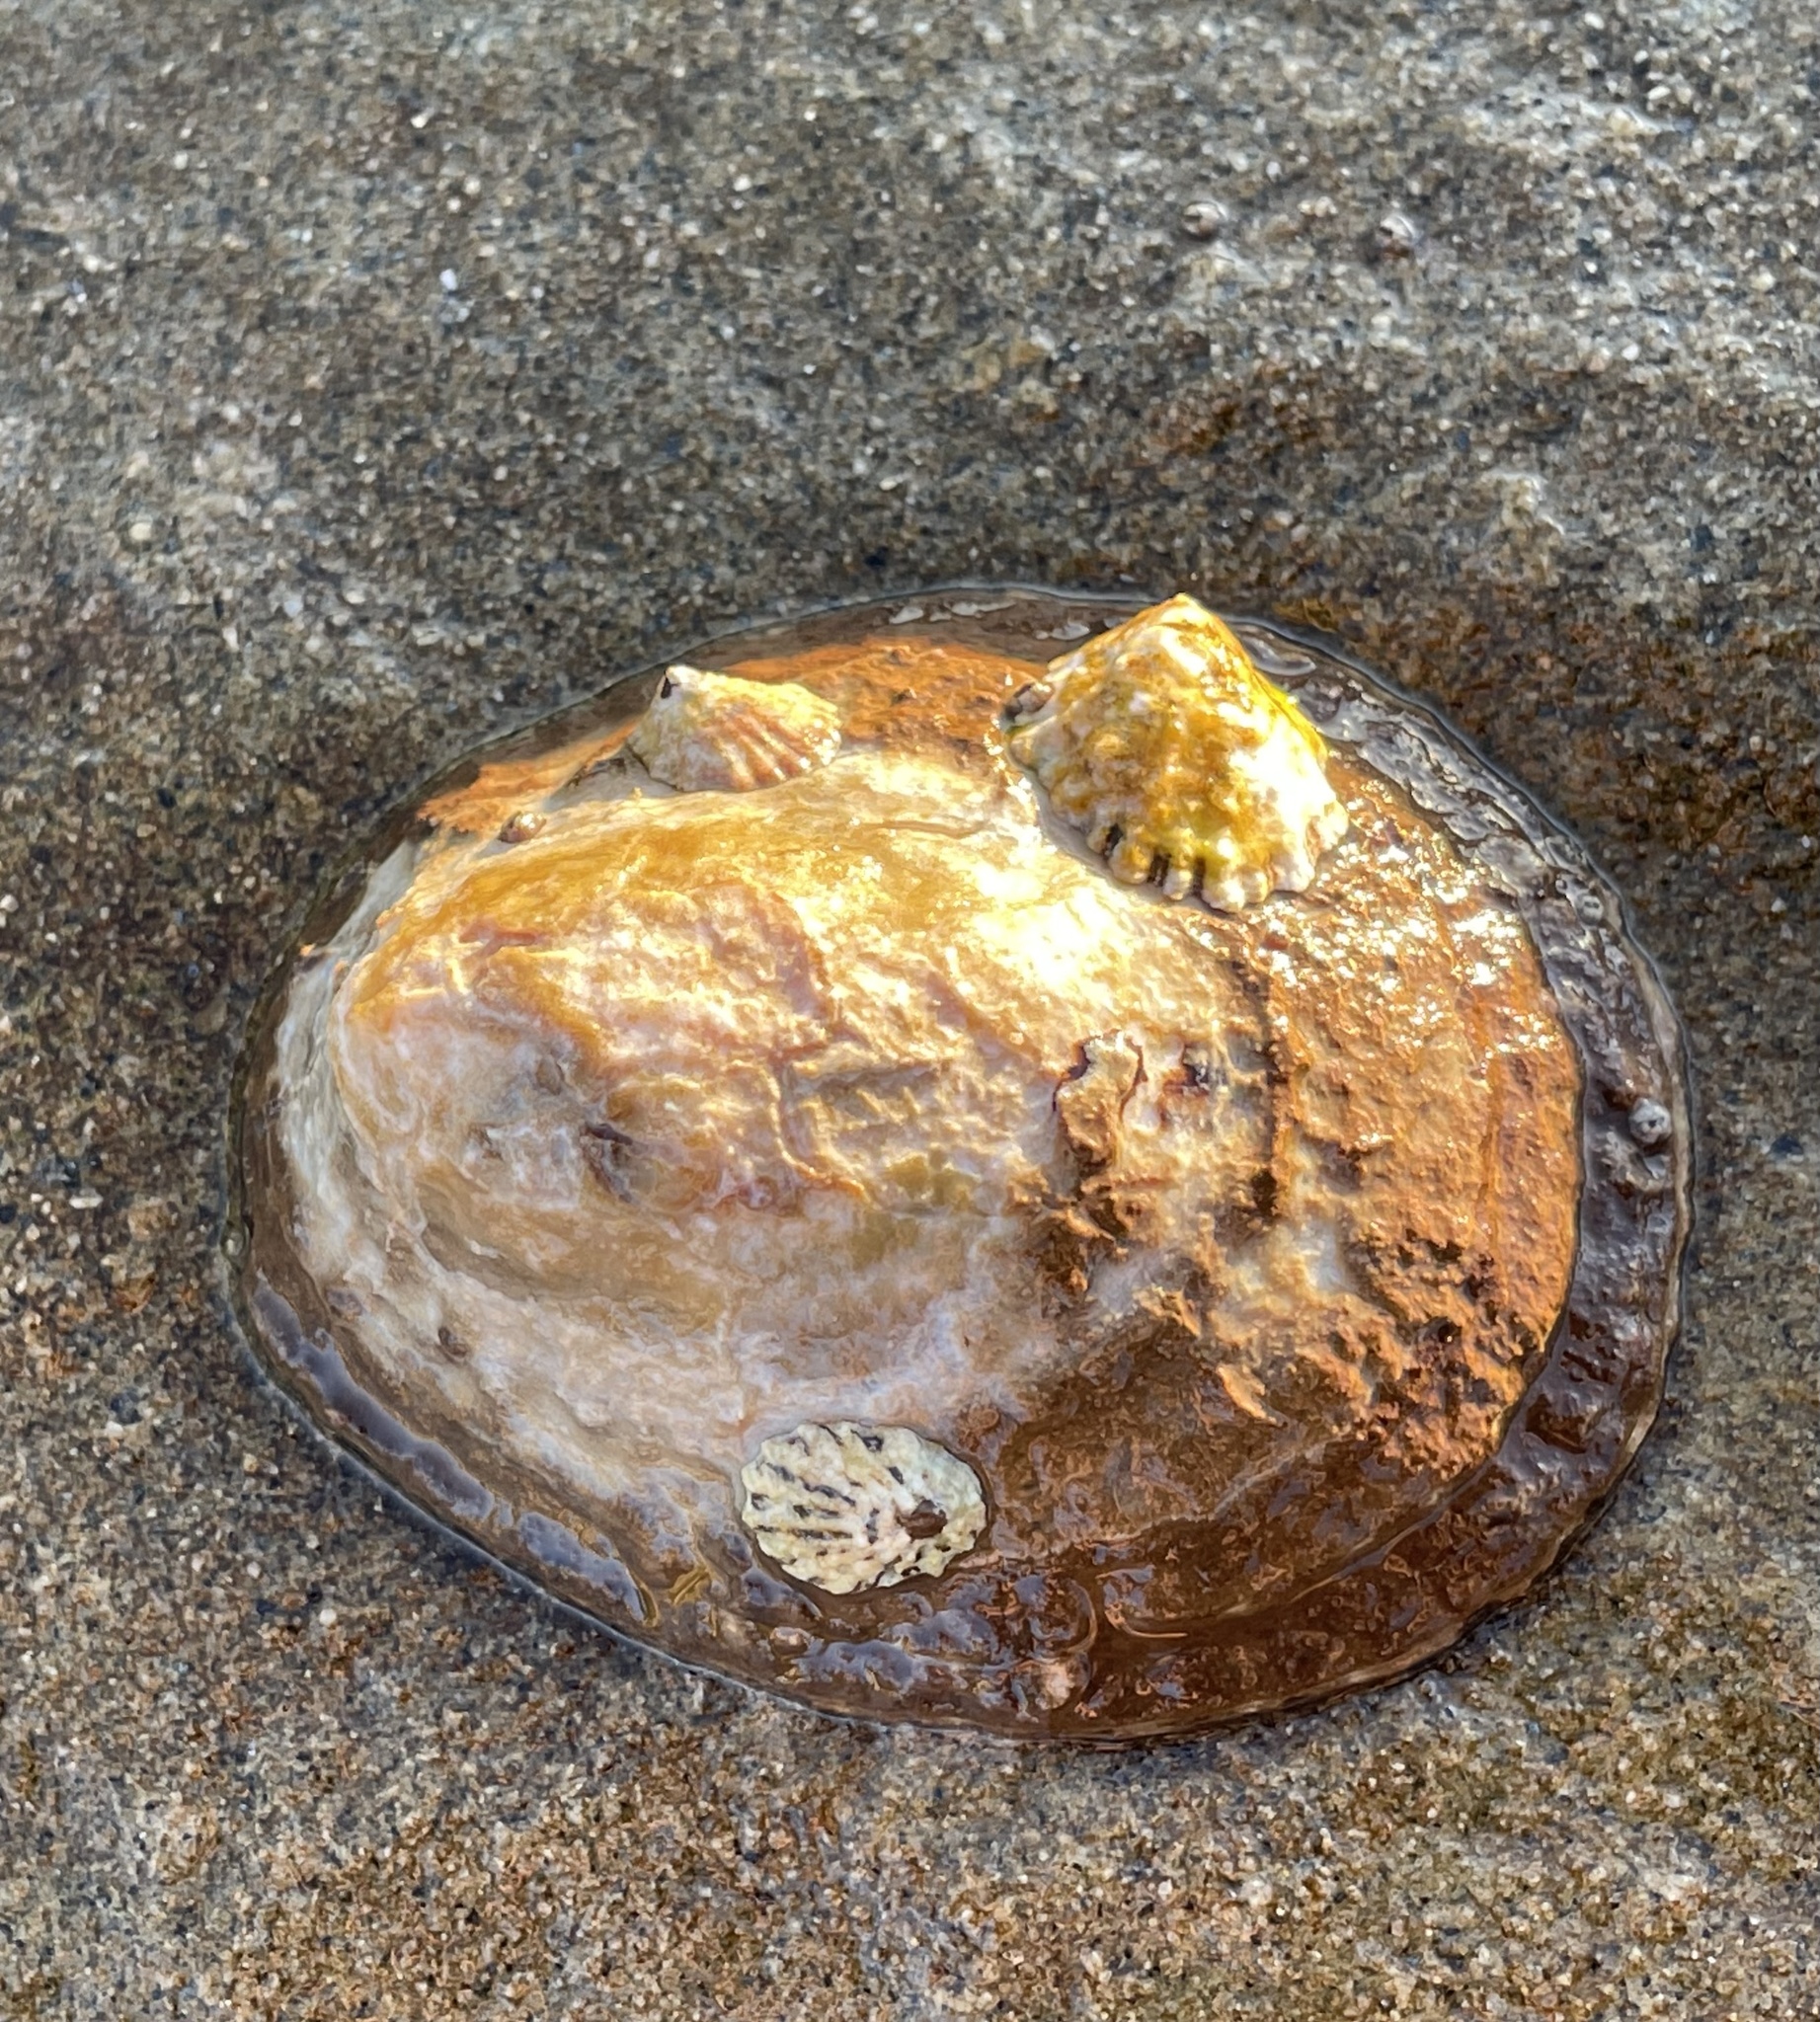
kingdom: Animalia
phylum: Mollusca
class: Gastropoda
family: Lottiidae
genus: Lottia
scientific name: Lottia gigantea
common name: Owl limpet
